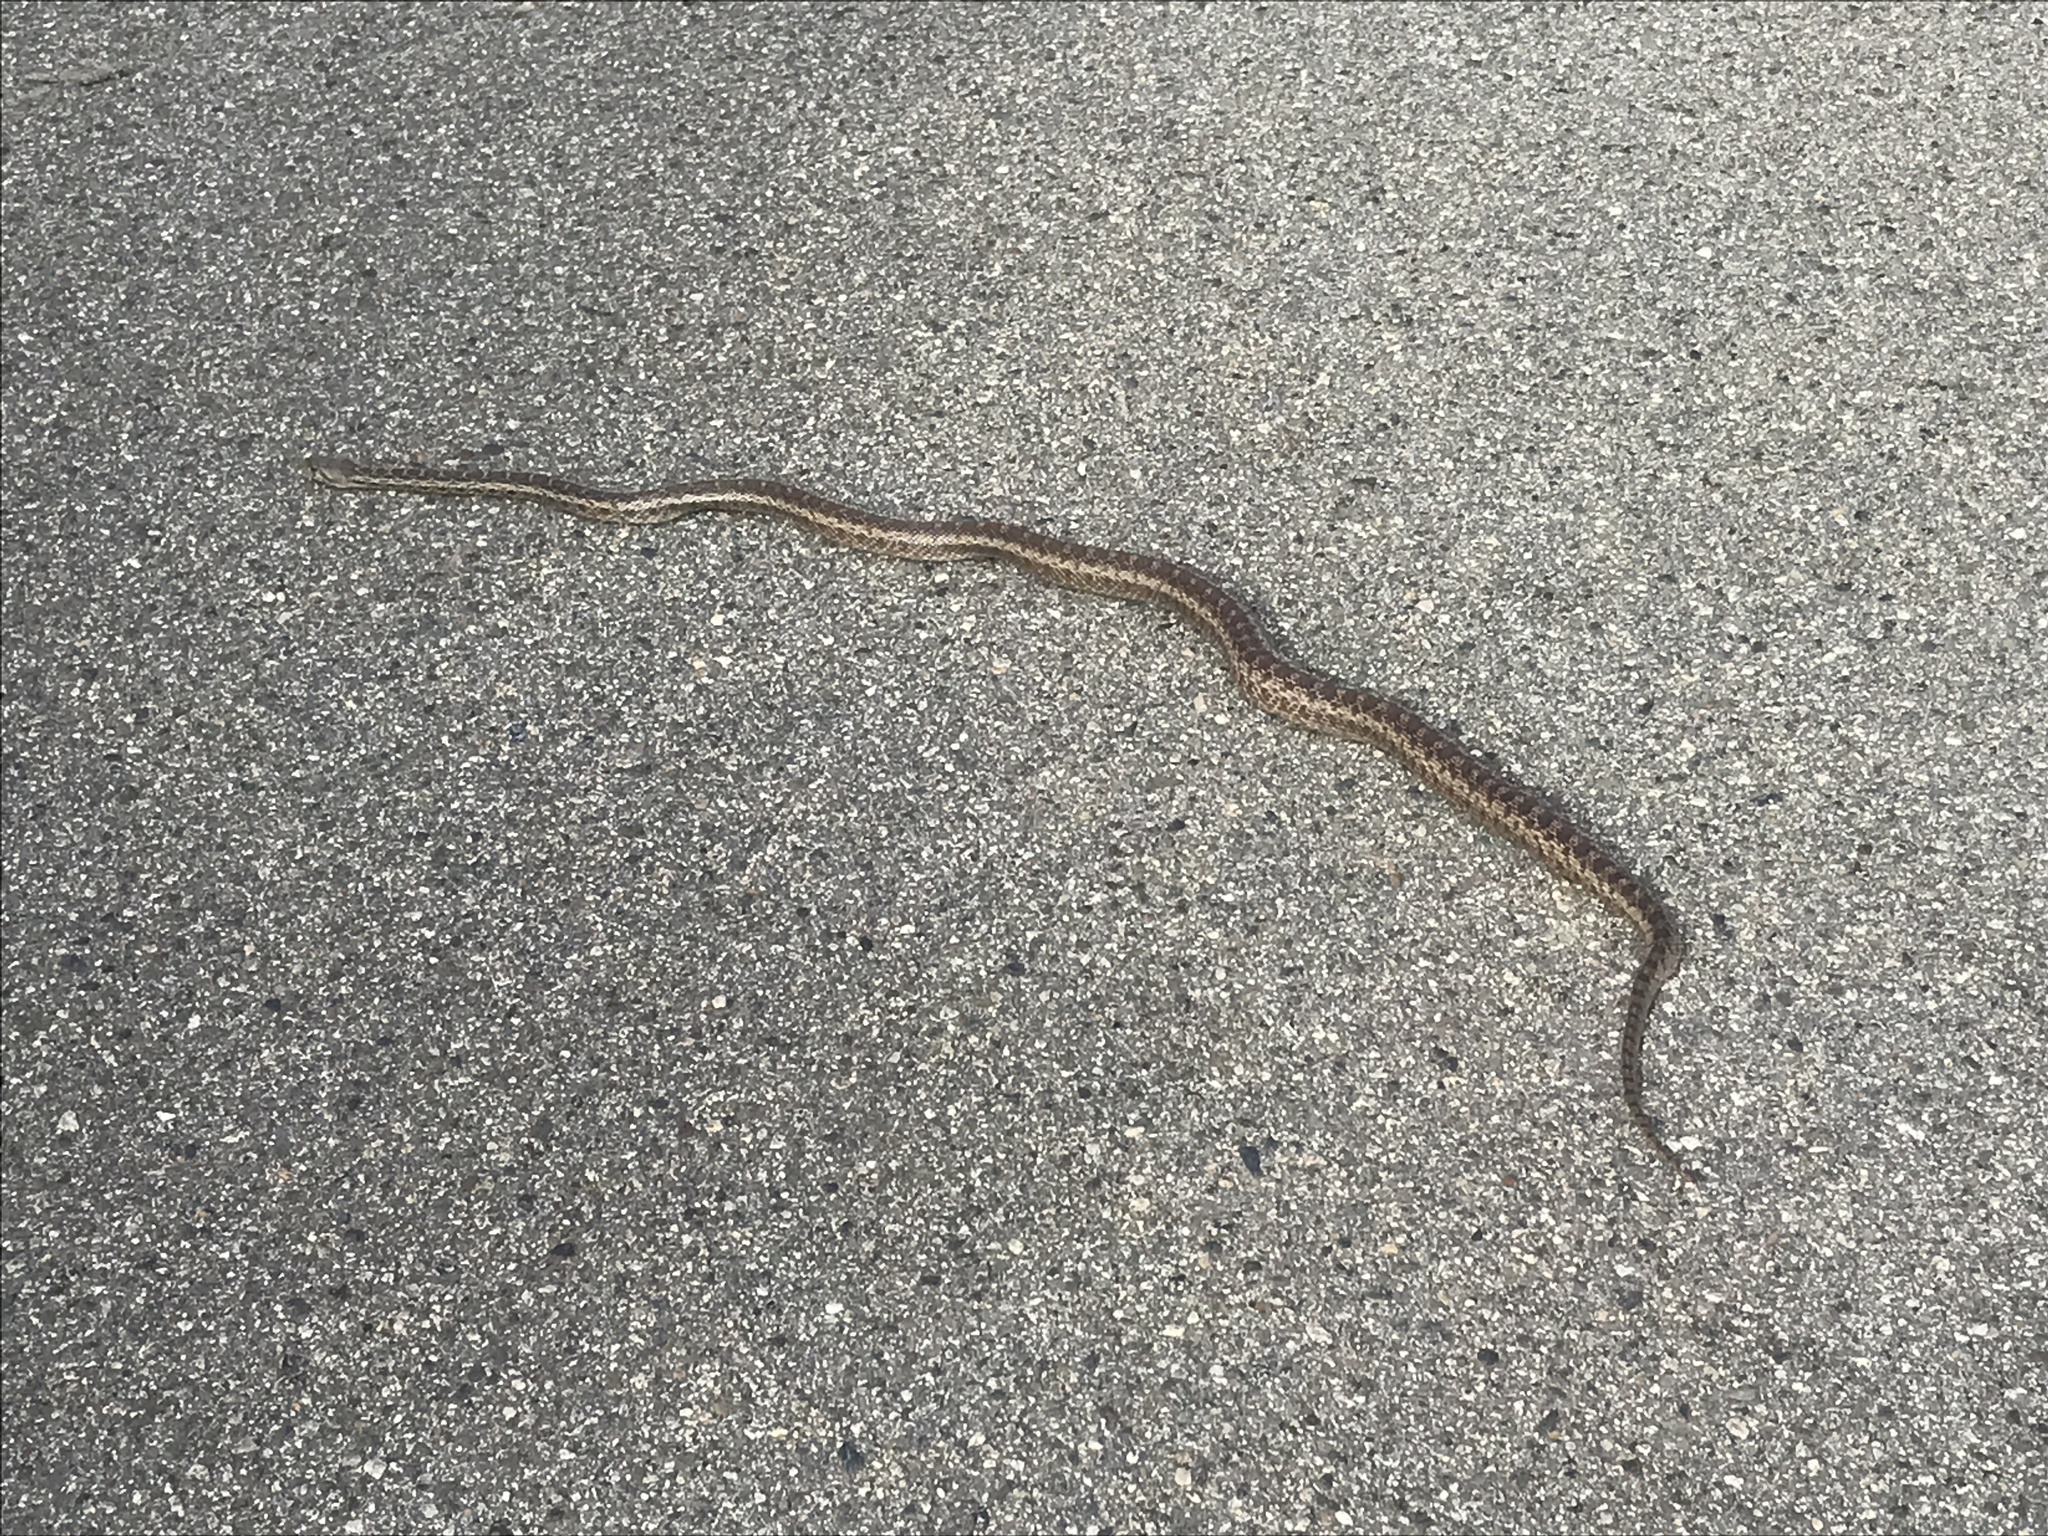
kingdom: Animalia
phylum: Chordata
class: Squamata
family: Colubridae
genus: Pituophis
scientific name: Pituophis catenifer
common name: Gopher snake
